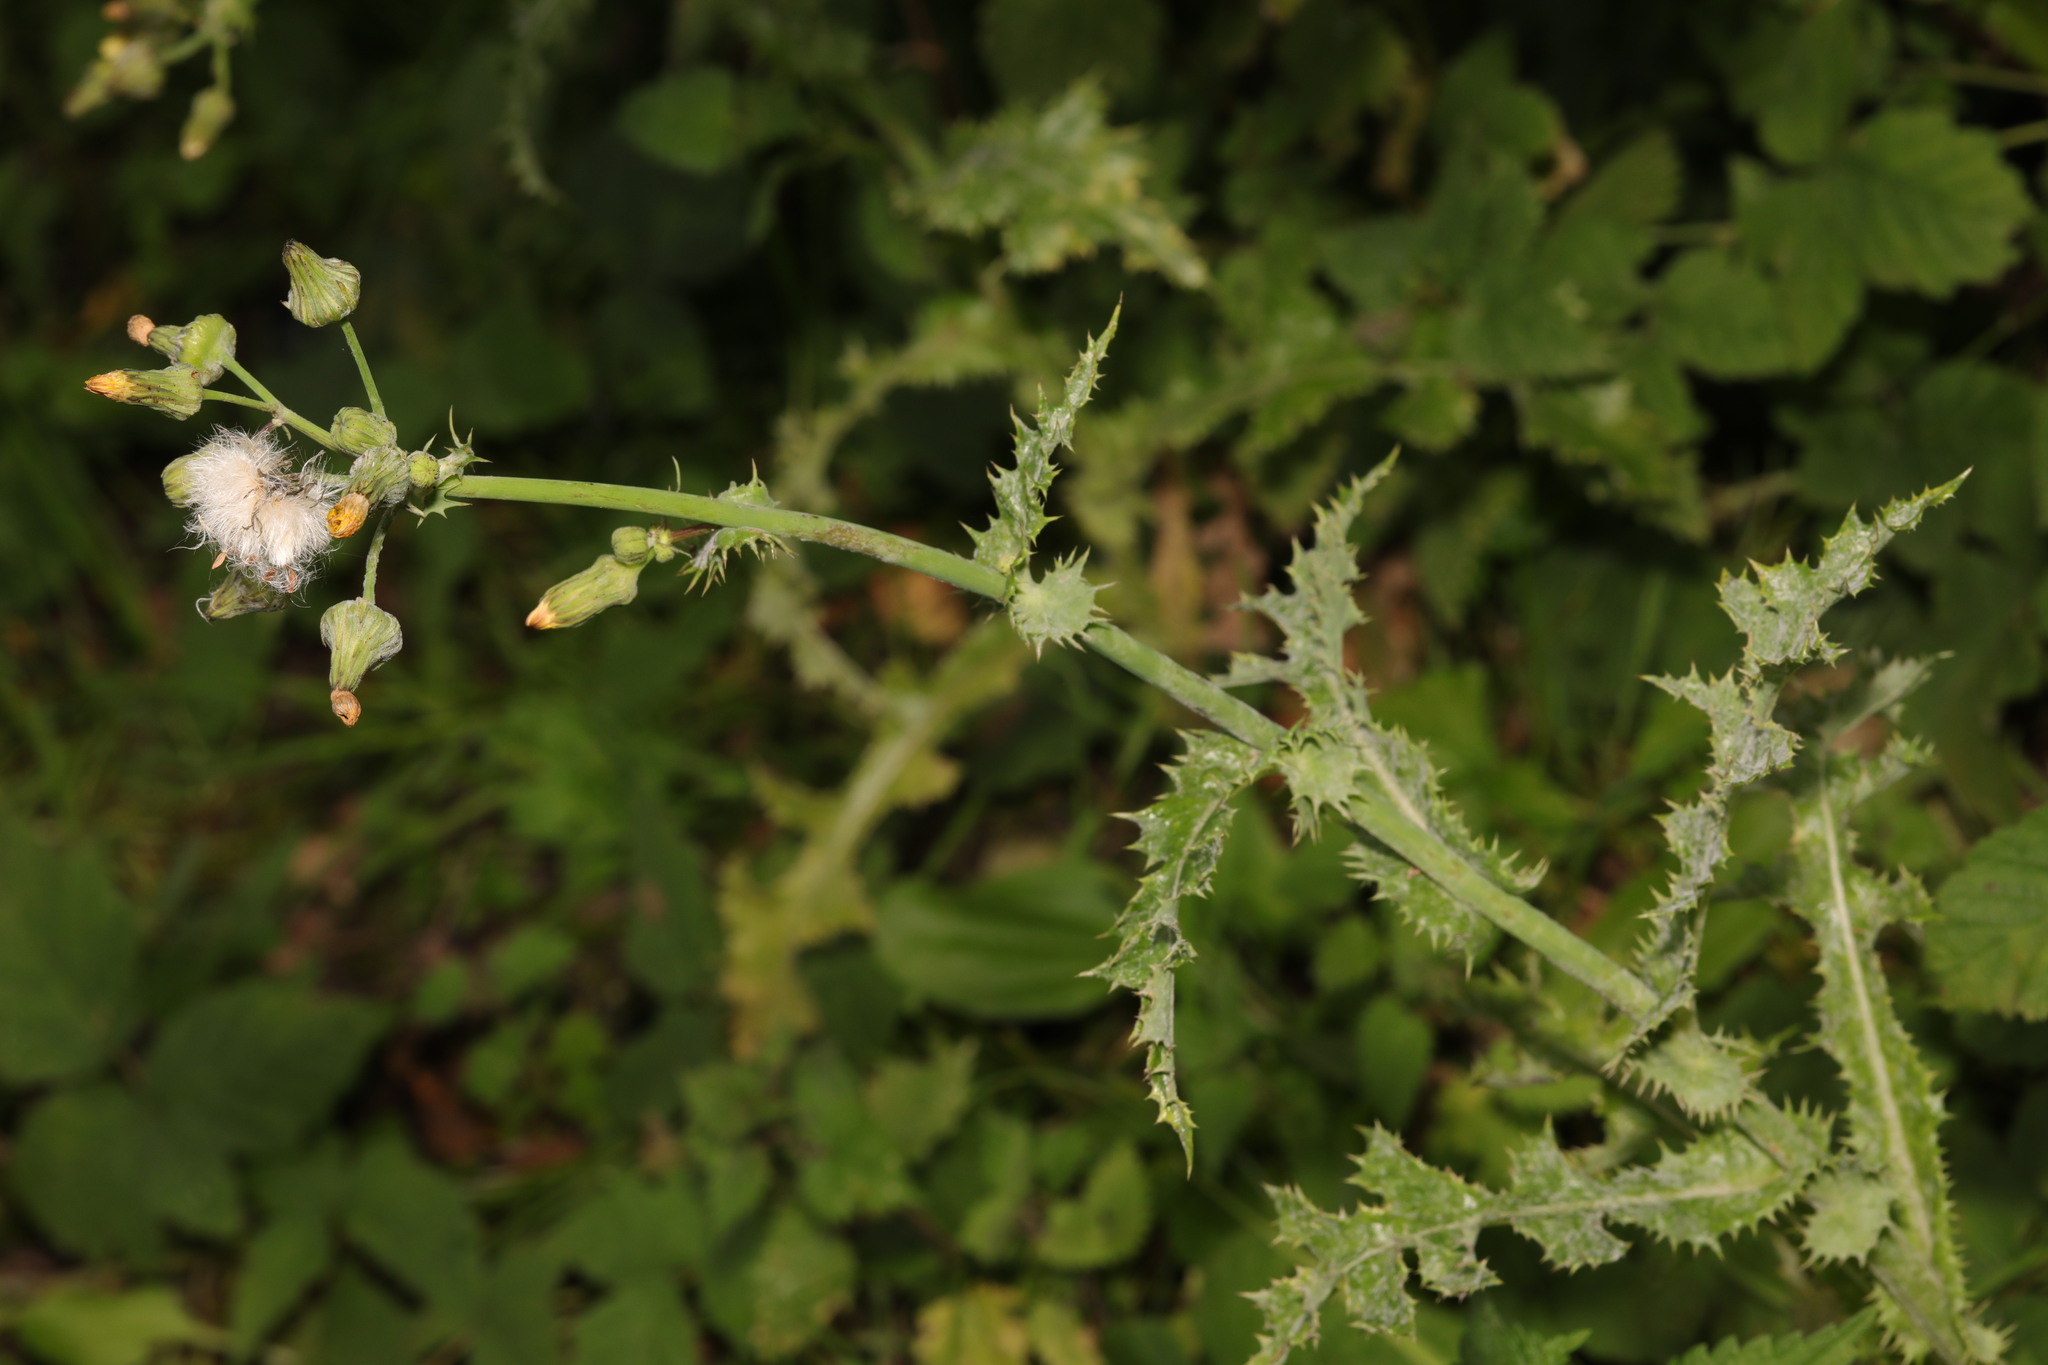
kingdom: Plantae
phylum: Tracheophyta
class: Magnoliopsida
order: Asterales
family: Asteraceae
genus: Sonchus
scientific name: Sonchus asper
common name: Prickly sow-thistle
